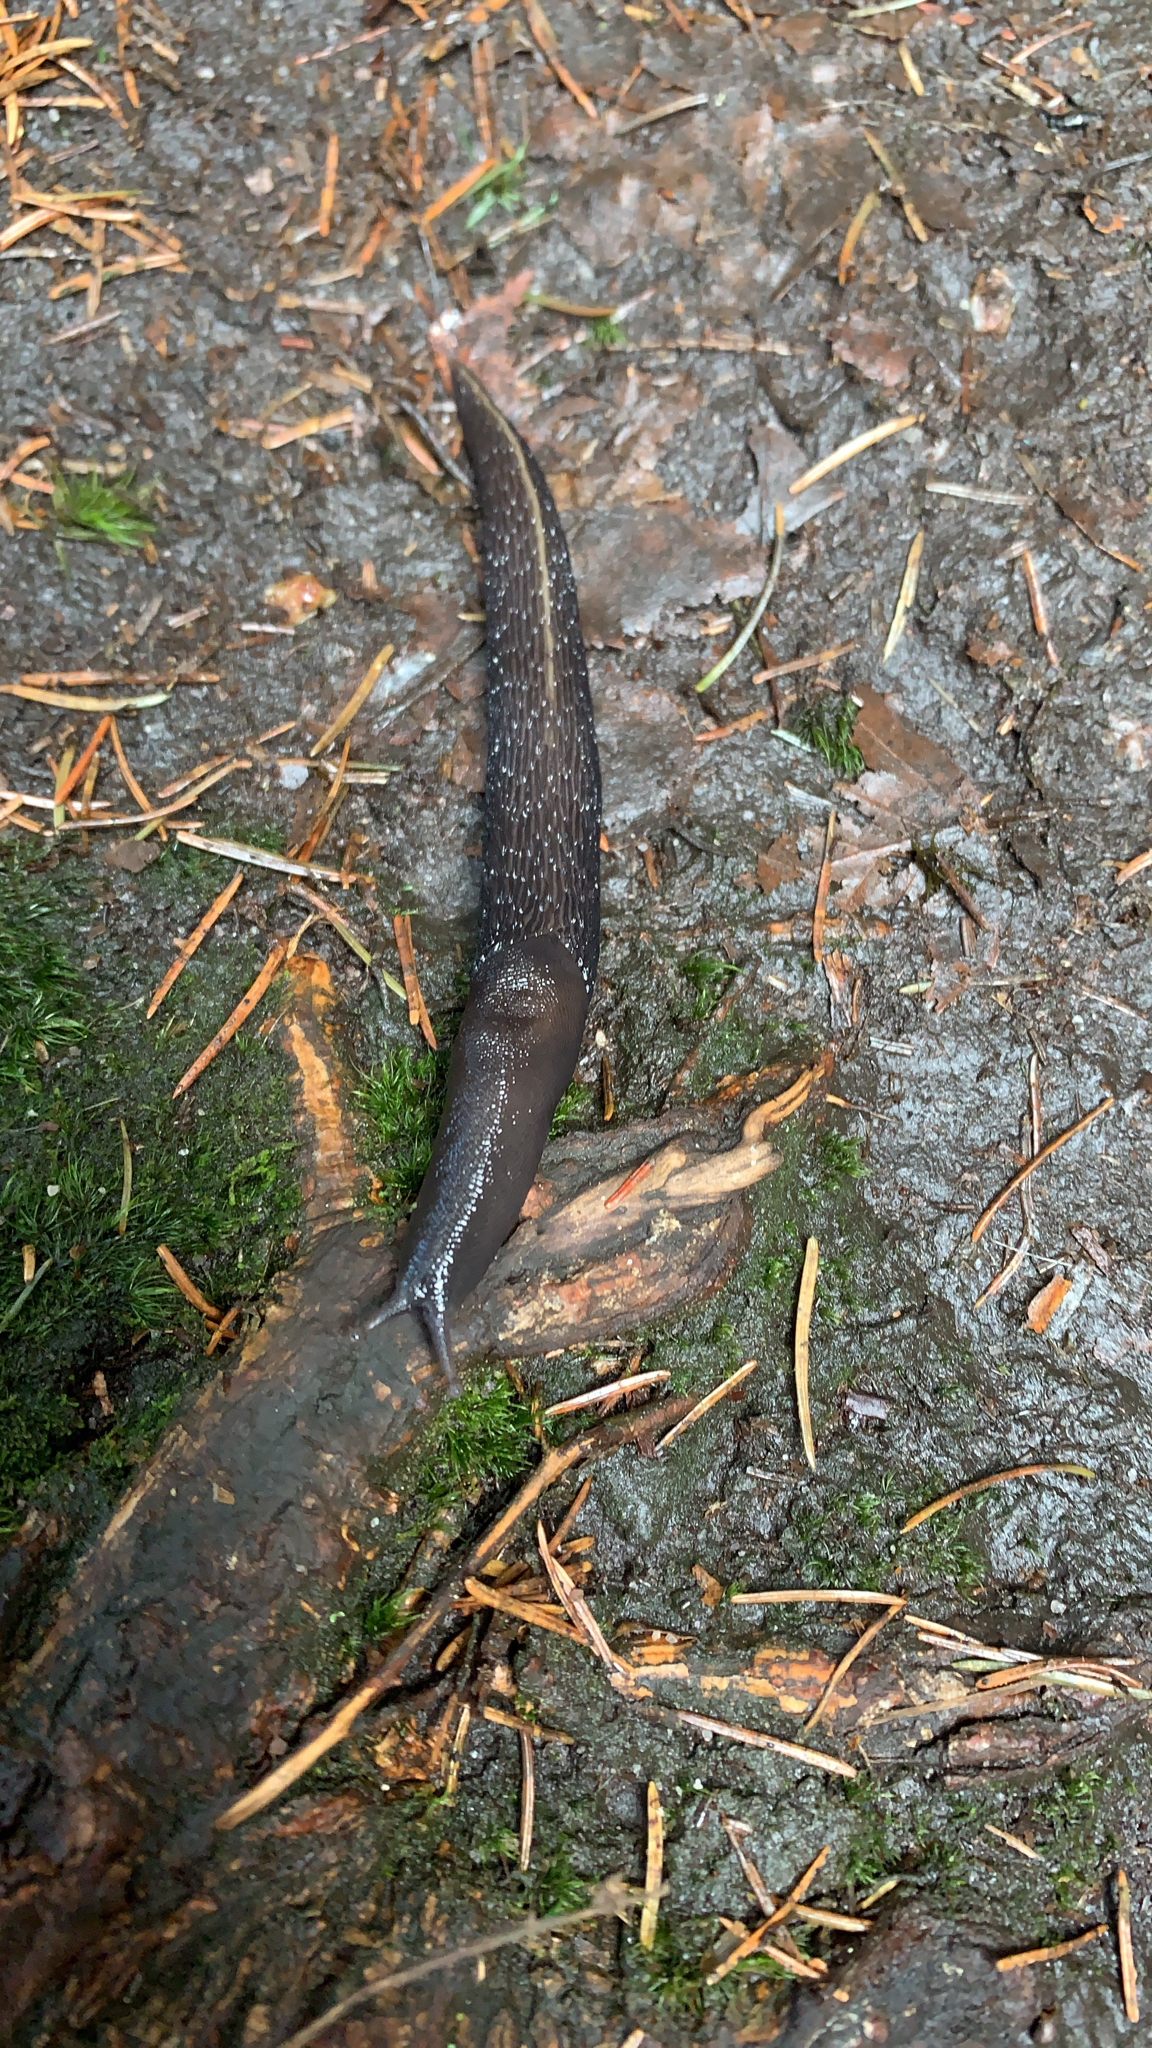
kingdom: Animalia
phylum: Mollusca
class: Gastropoda
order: Stylommatophora
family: Limacidae
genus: Limax
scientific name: Limax cinereoniger
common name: Ash-black slug
